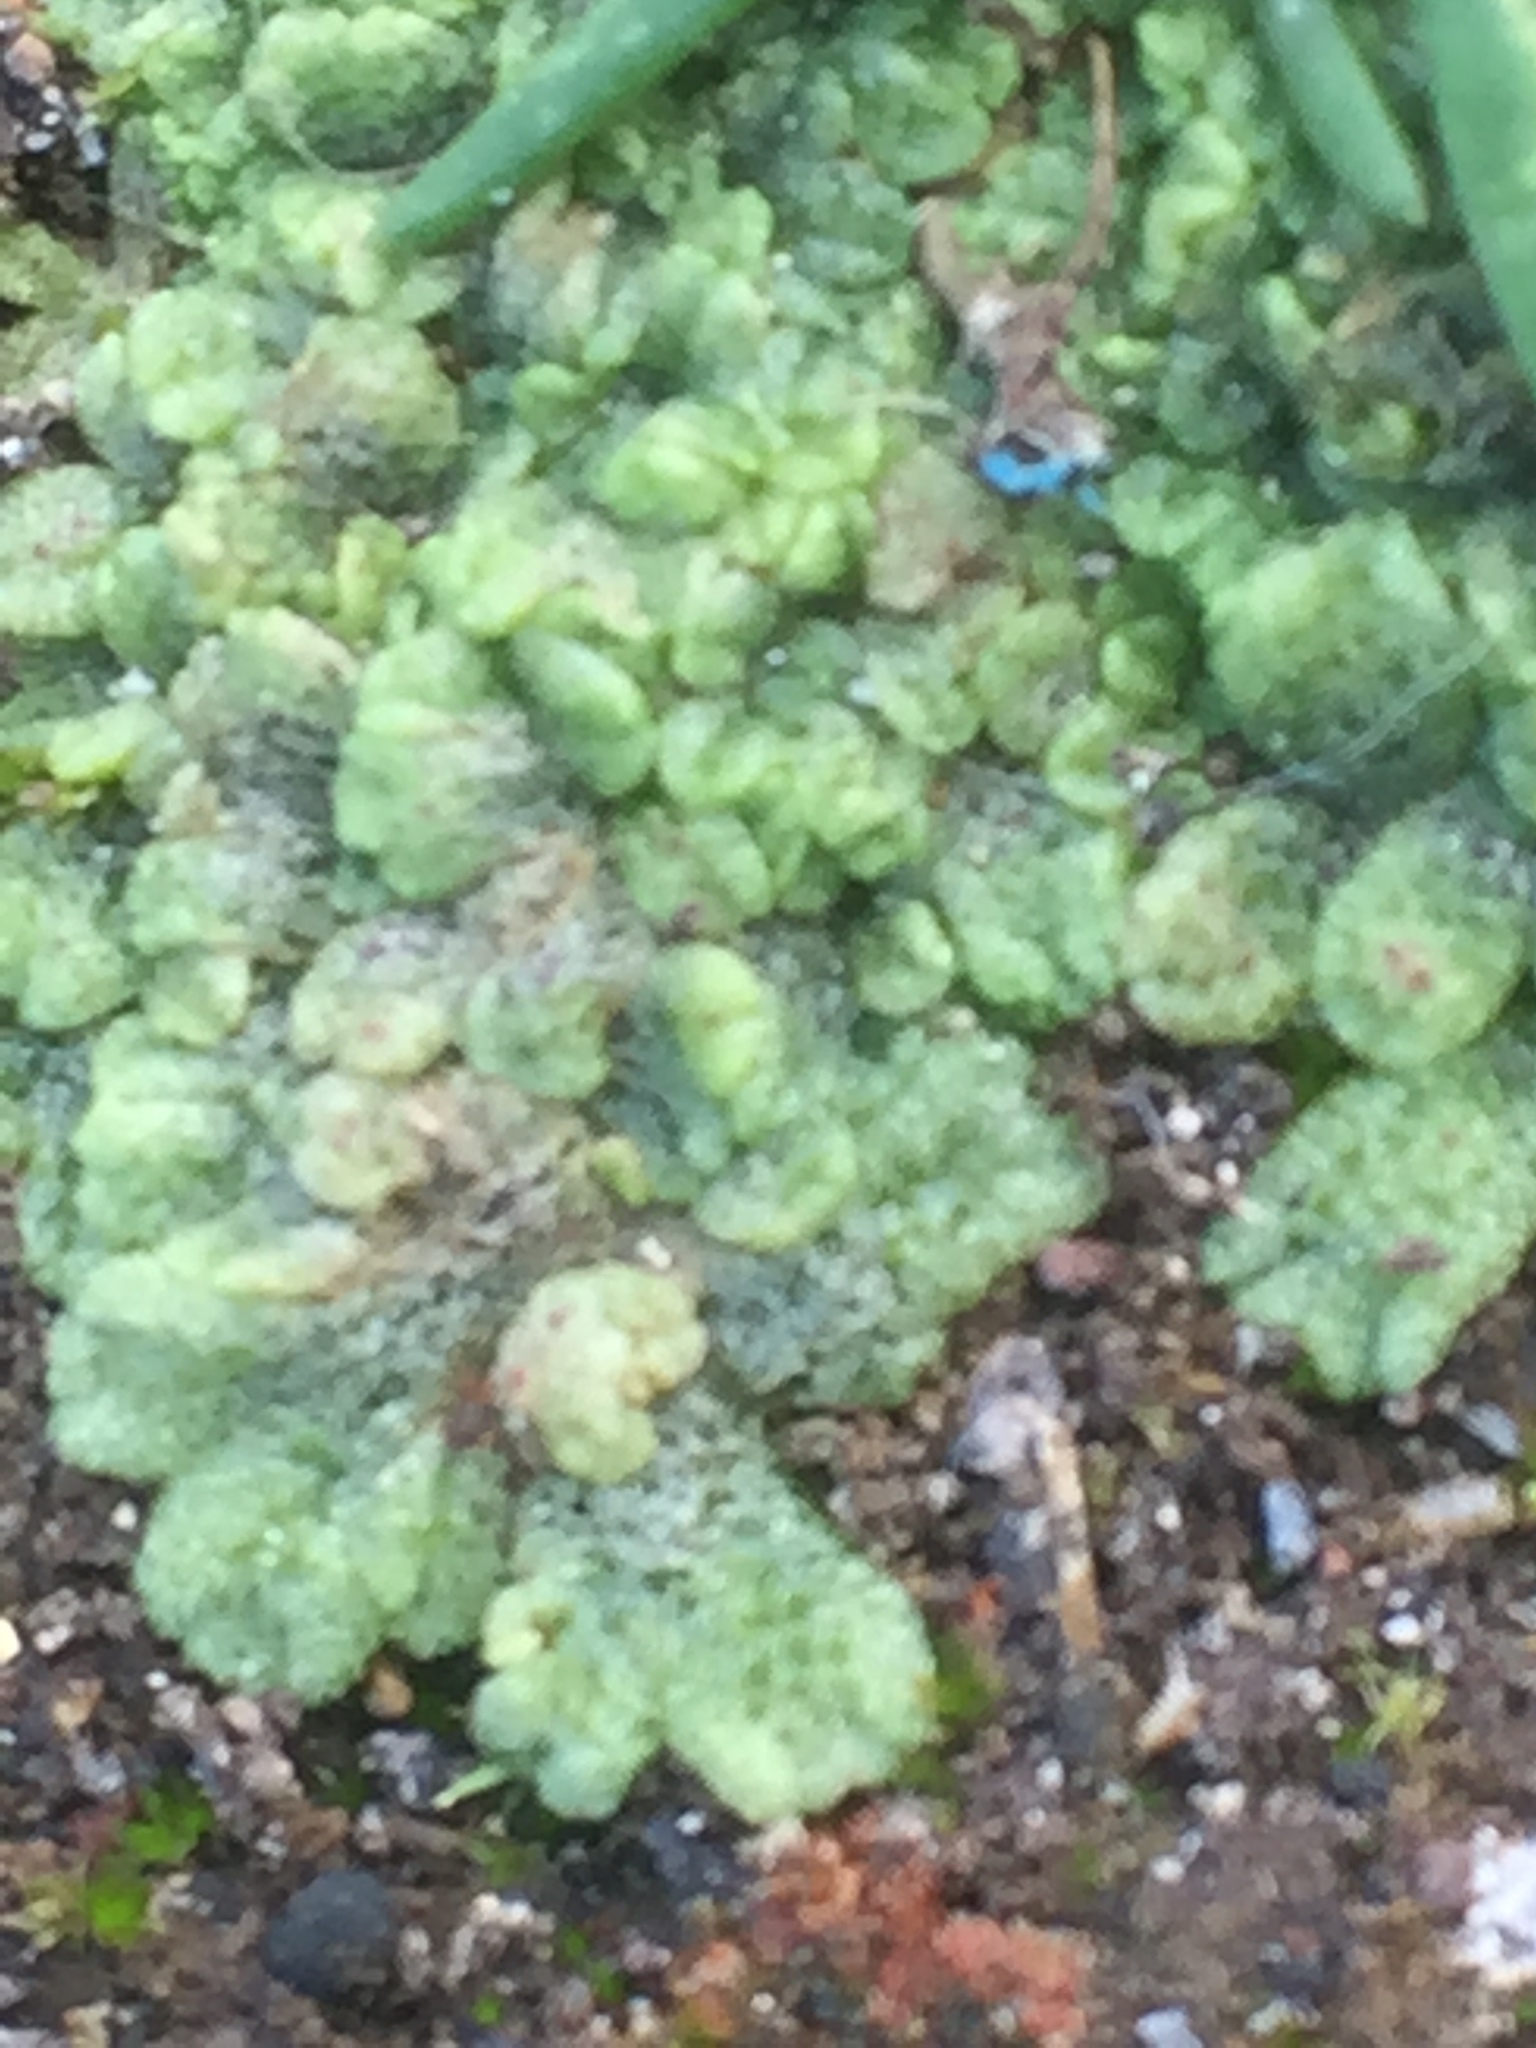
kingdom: Plantae
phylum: Marchantiophyta
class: Marchantiopsida
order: Marchantiales
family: Ricciaceae
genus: Riccia
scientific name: Riccia cavernosa
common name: Cavernous crystalwort
